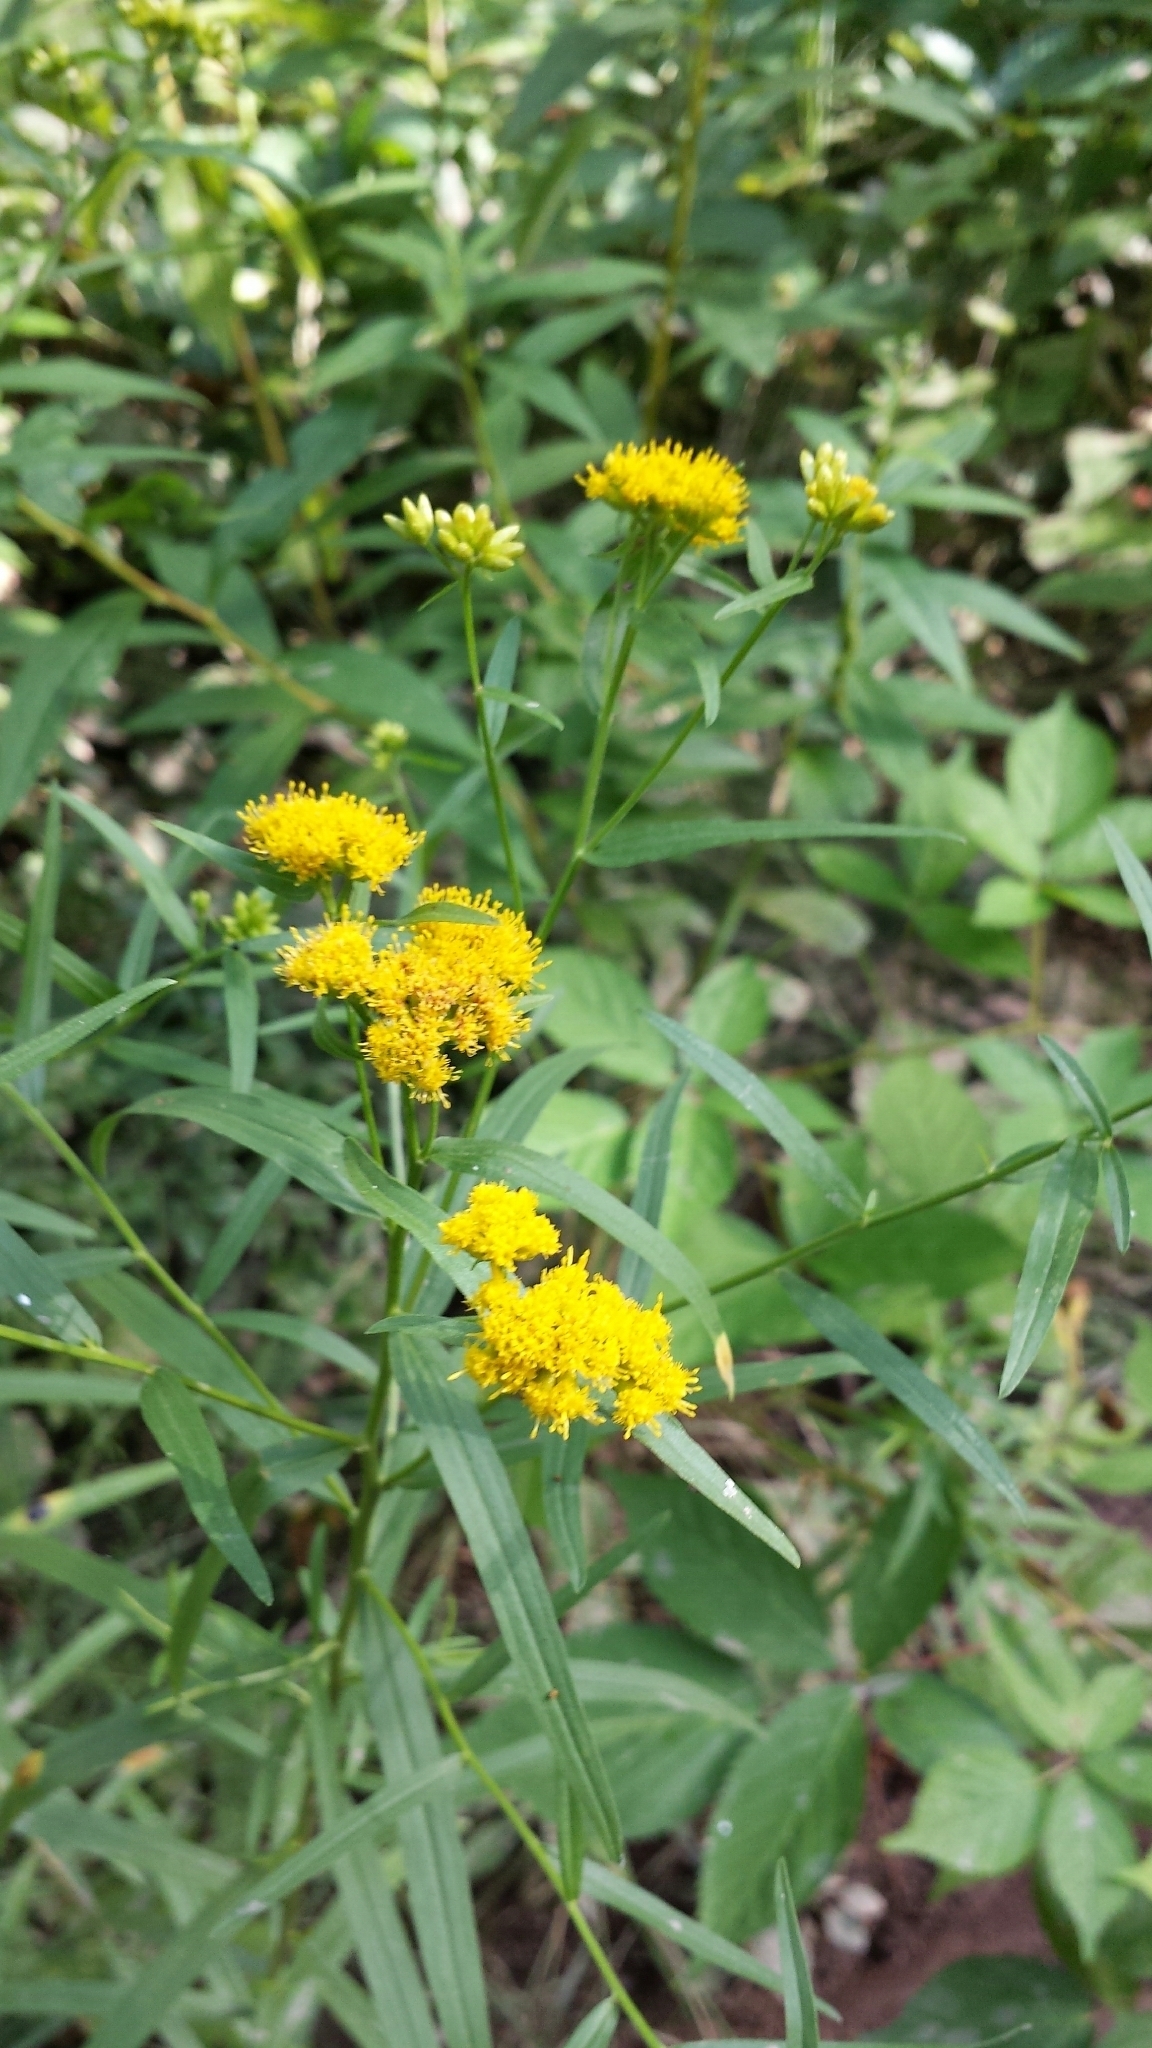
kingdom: Plantae
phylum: Tracheophyta
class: Magnoliopsida
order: Asterales
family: Asteraceae
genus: Euthamia
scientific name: Euthamia graminifolia
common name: Common goldentop
